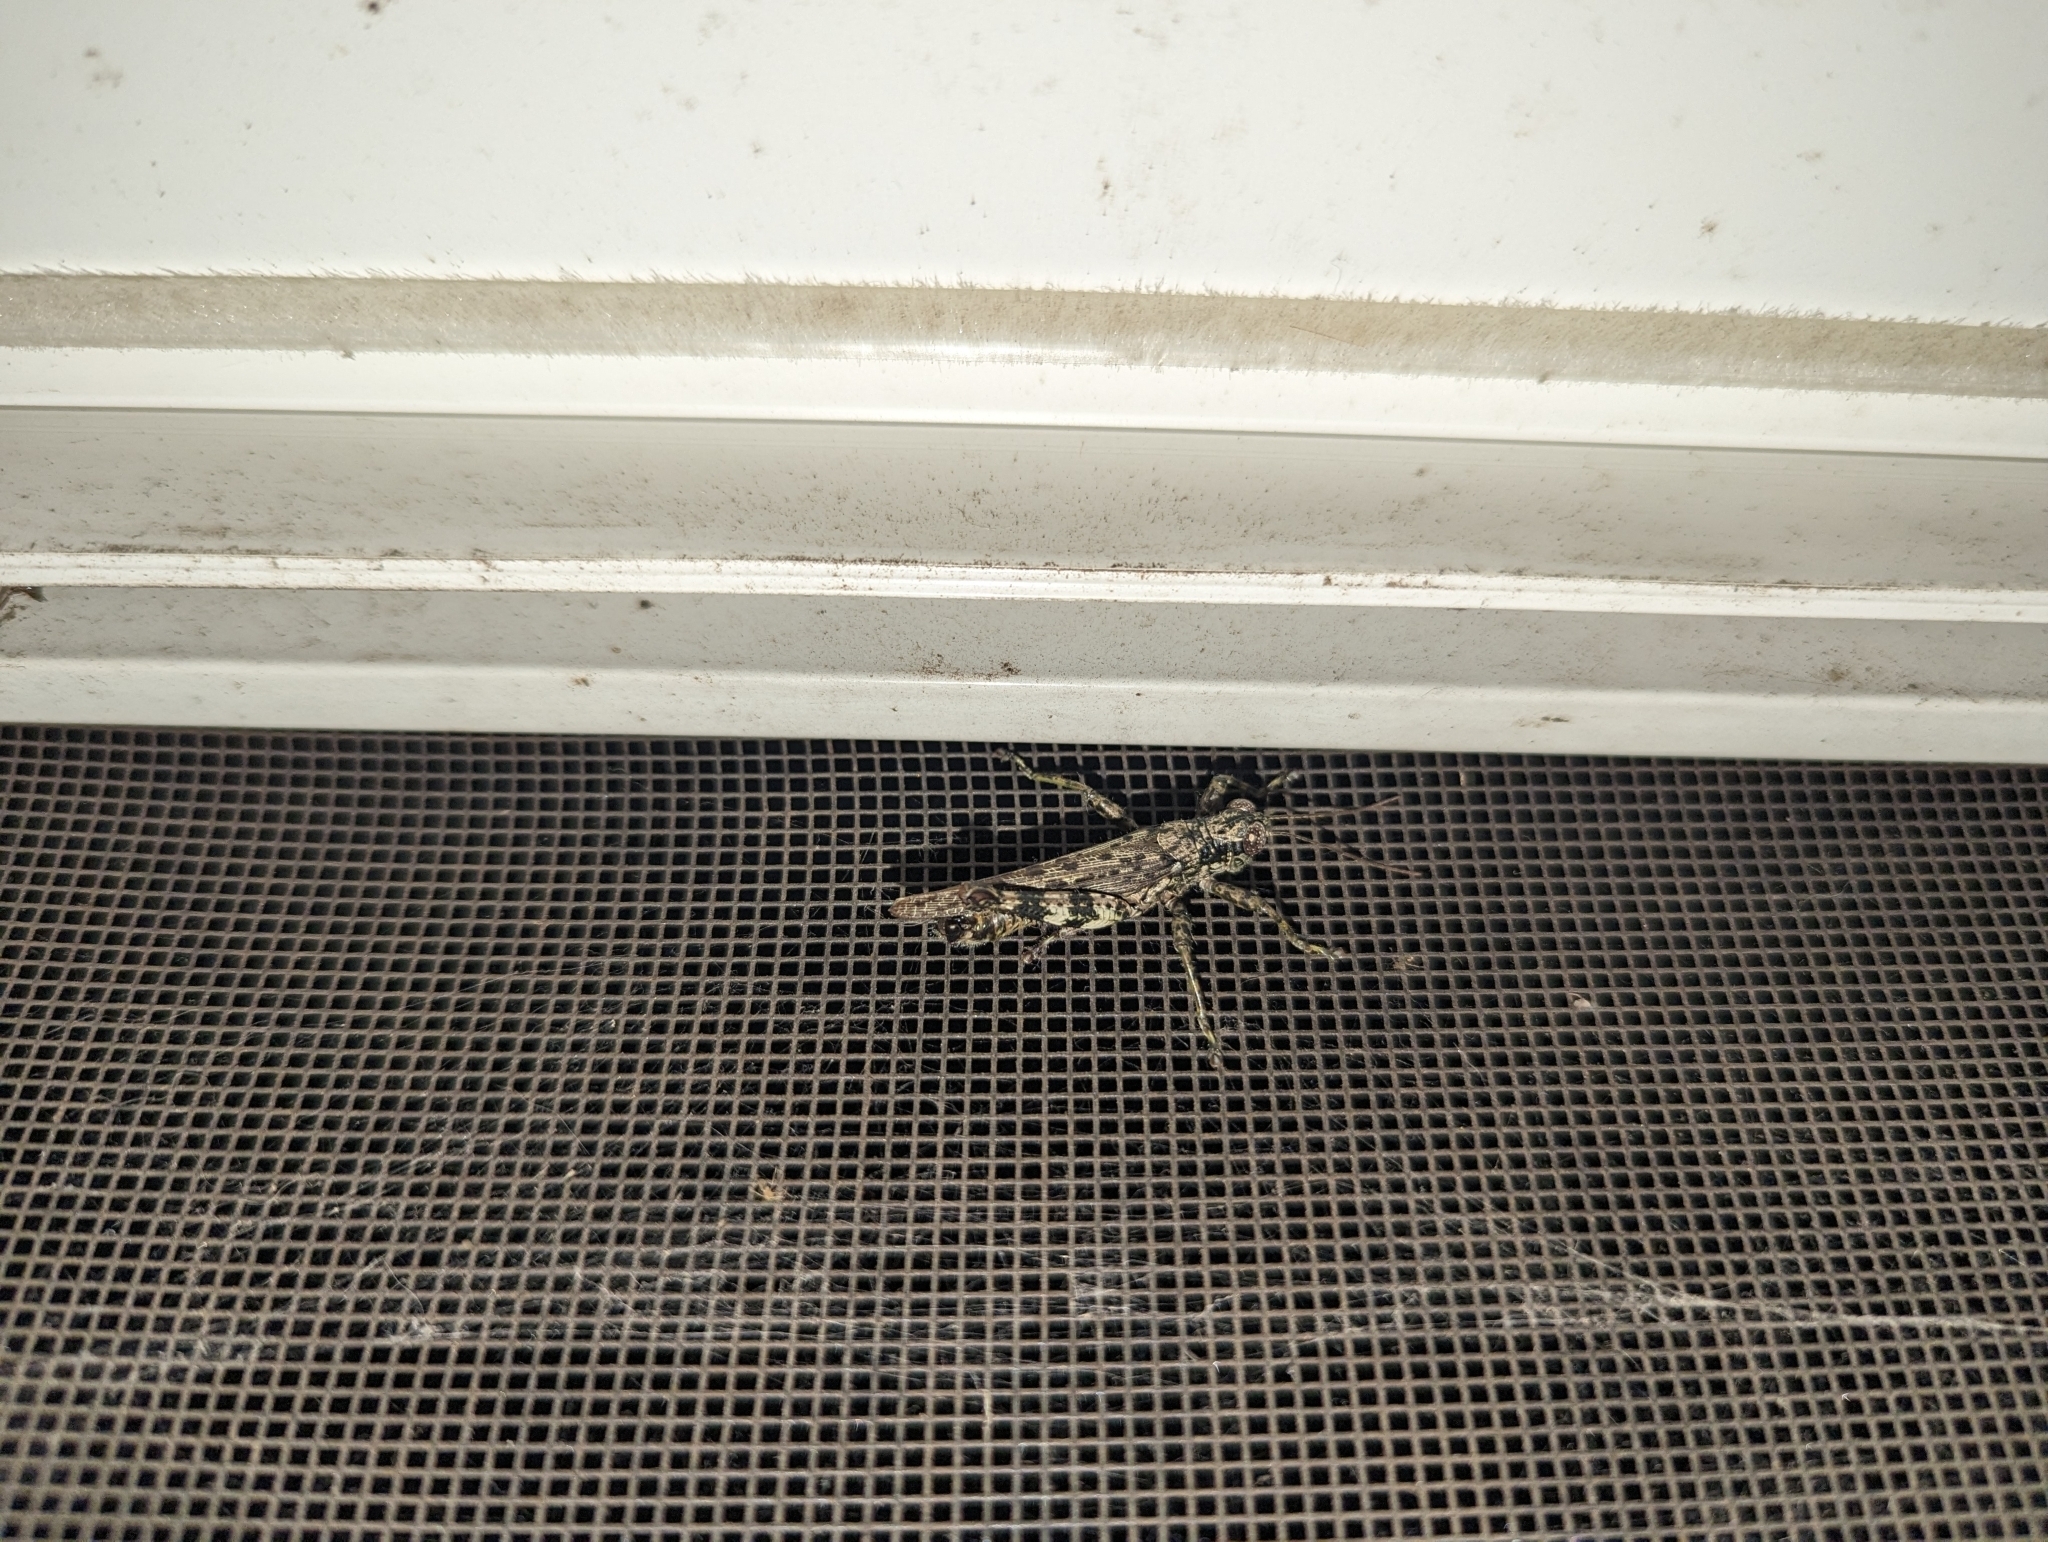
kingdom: Animalia
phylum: Arthropoda
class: Insecta
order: Orthoptera
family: Acrididae
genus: Melanoplus
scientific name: Melanoplus punctulatus
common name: Pine-tree spur-throat grasshopper
